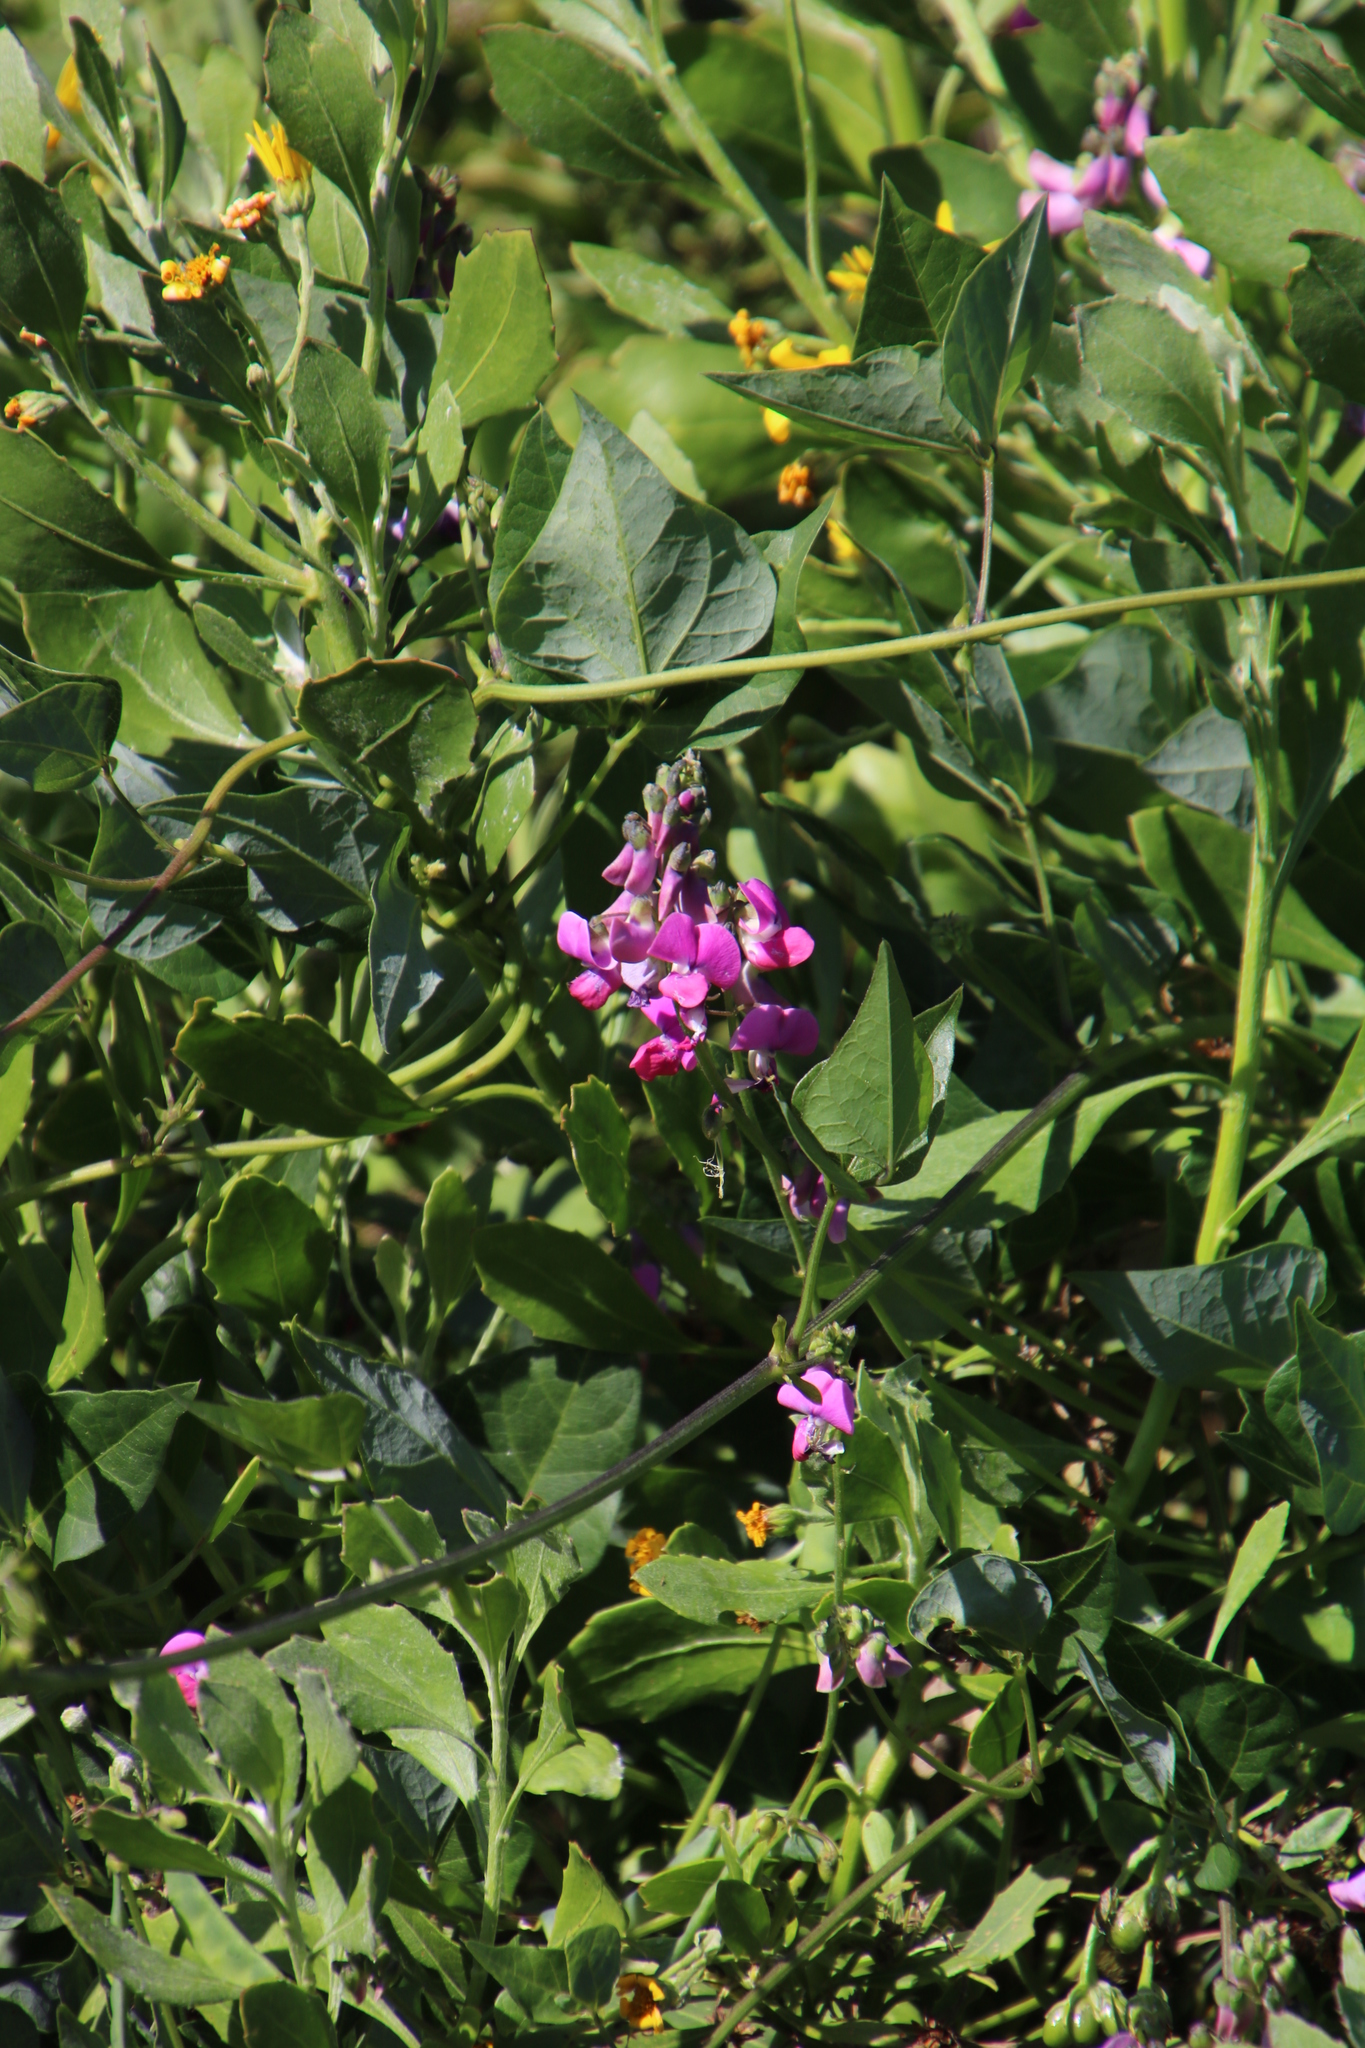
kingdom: Plantae
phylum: Tracheophyta
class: Magnoliopsida
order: Fabales
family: Fabaceae
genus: Dipogon
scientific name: Dipogon lignosus
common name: Okie bean
